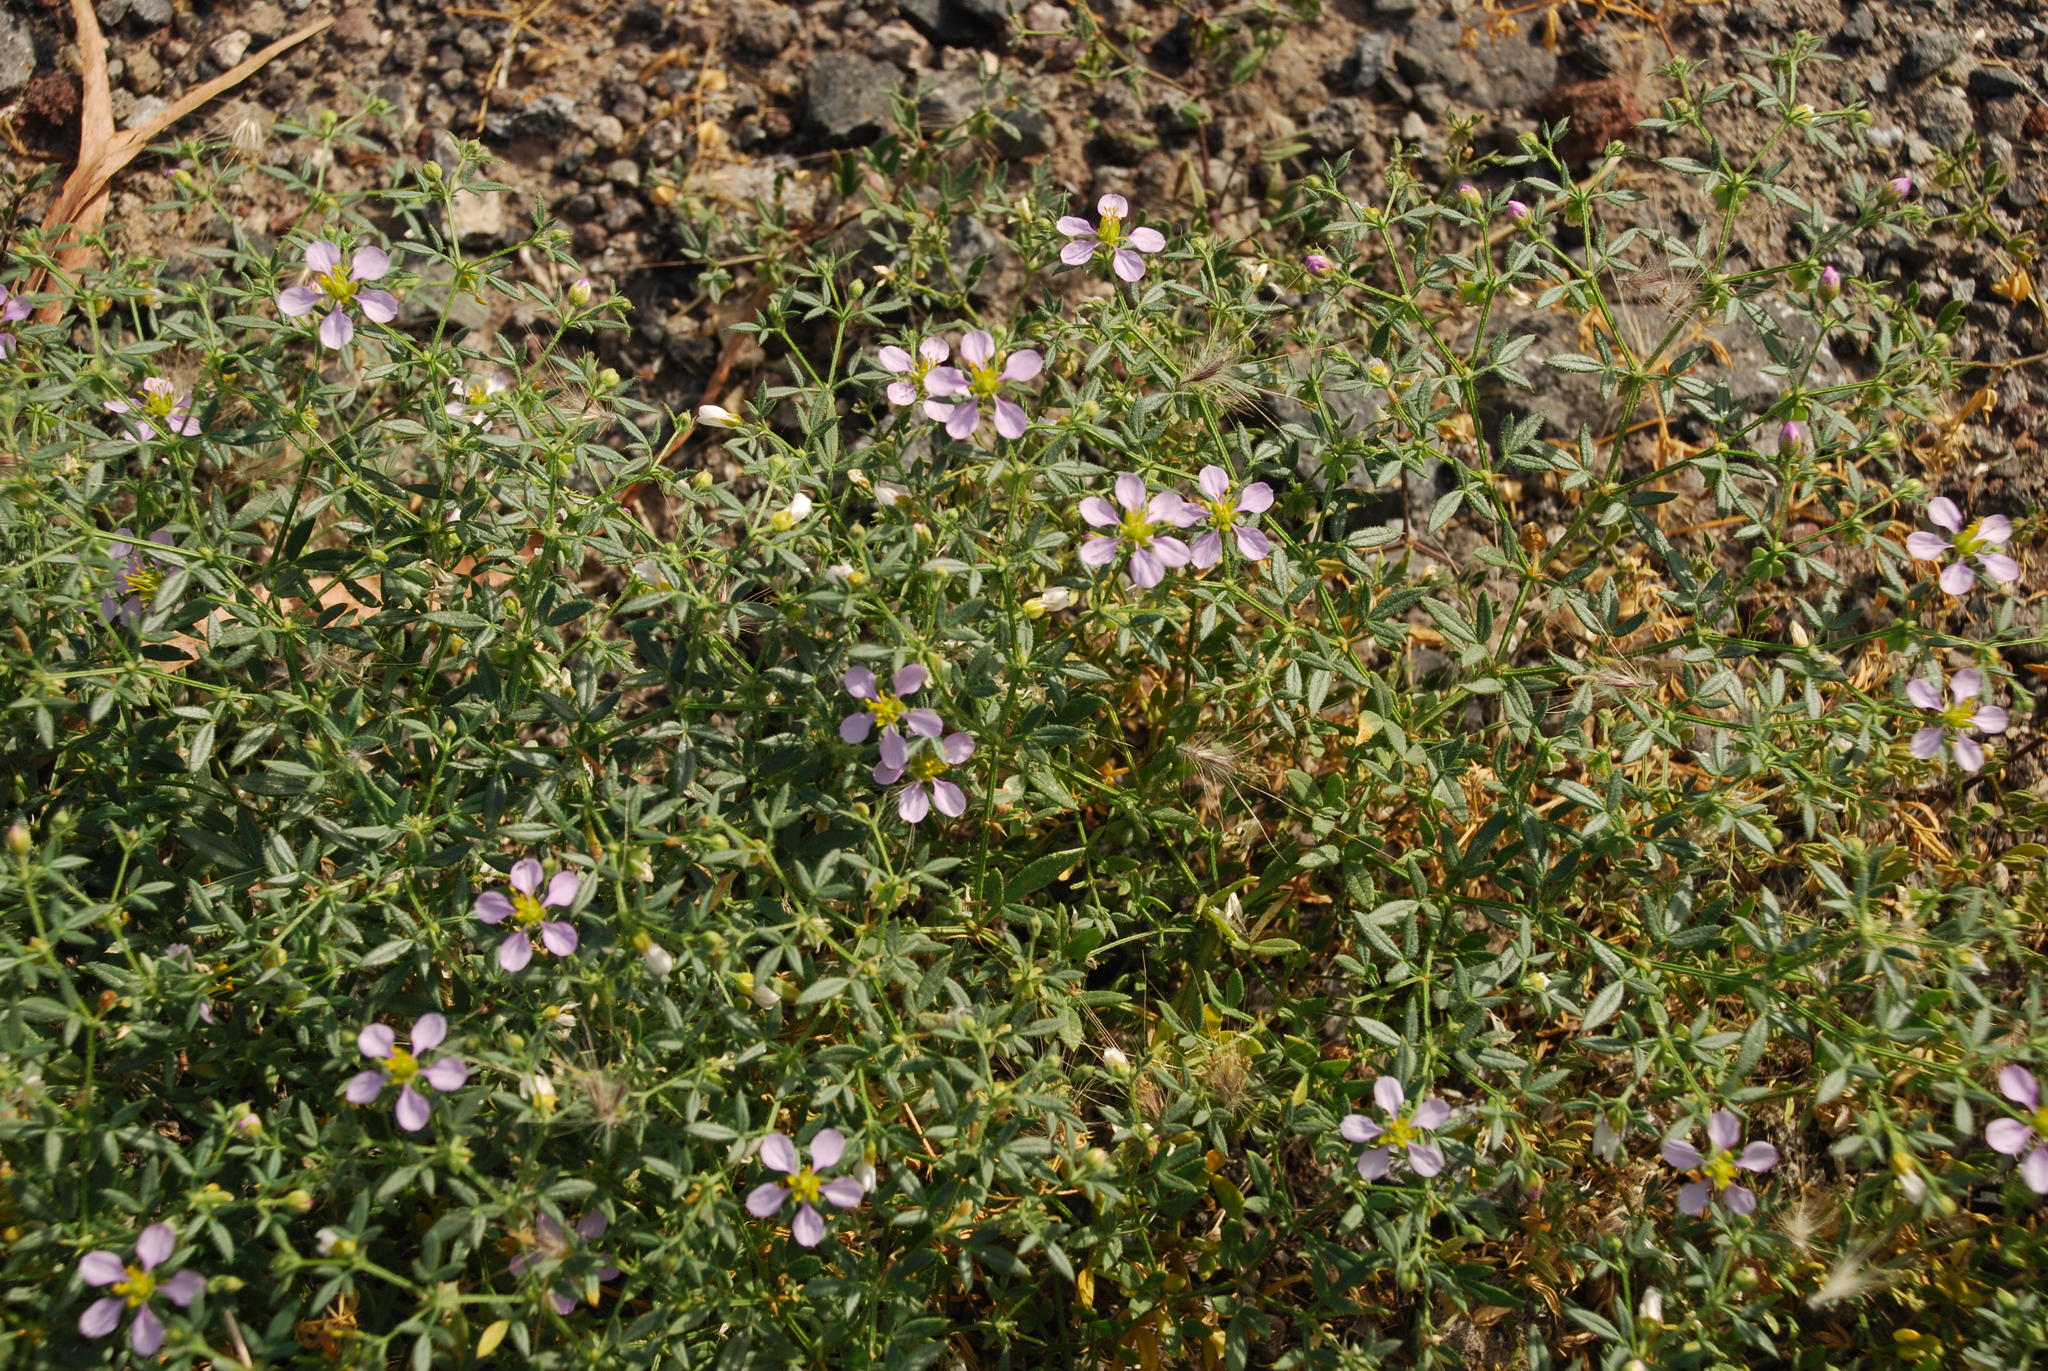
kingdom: Plantae
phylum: Tracheophyta
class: Magnoliopsida
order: Zygophyllales
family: Zygophyllaceae
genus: Fagonia
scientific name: Fagonia cretica
